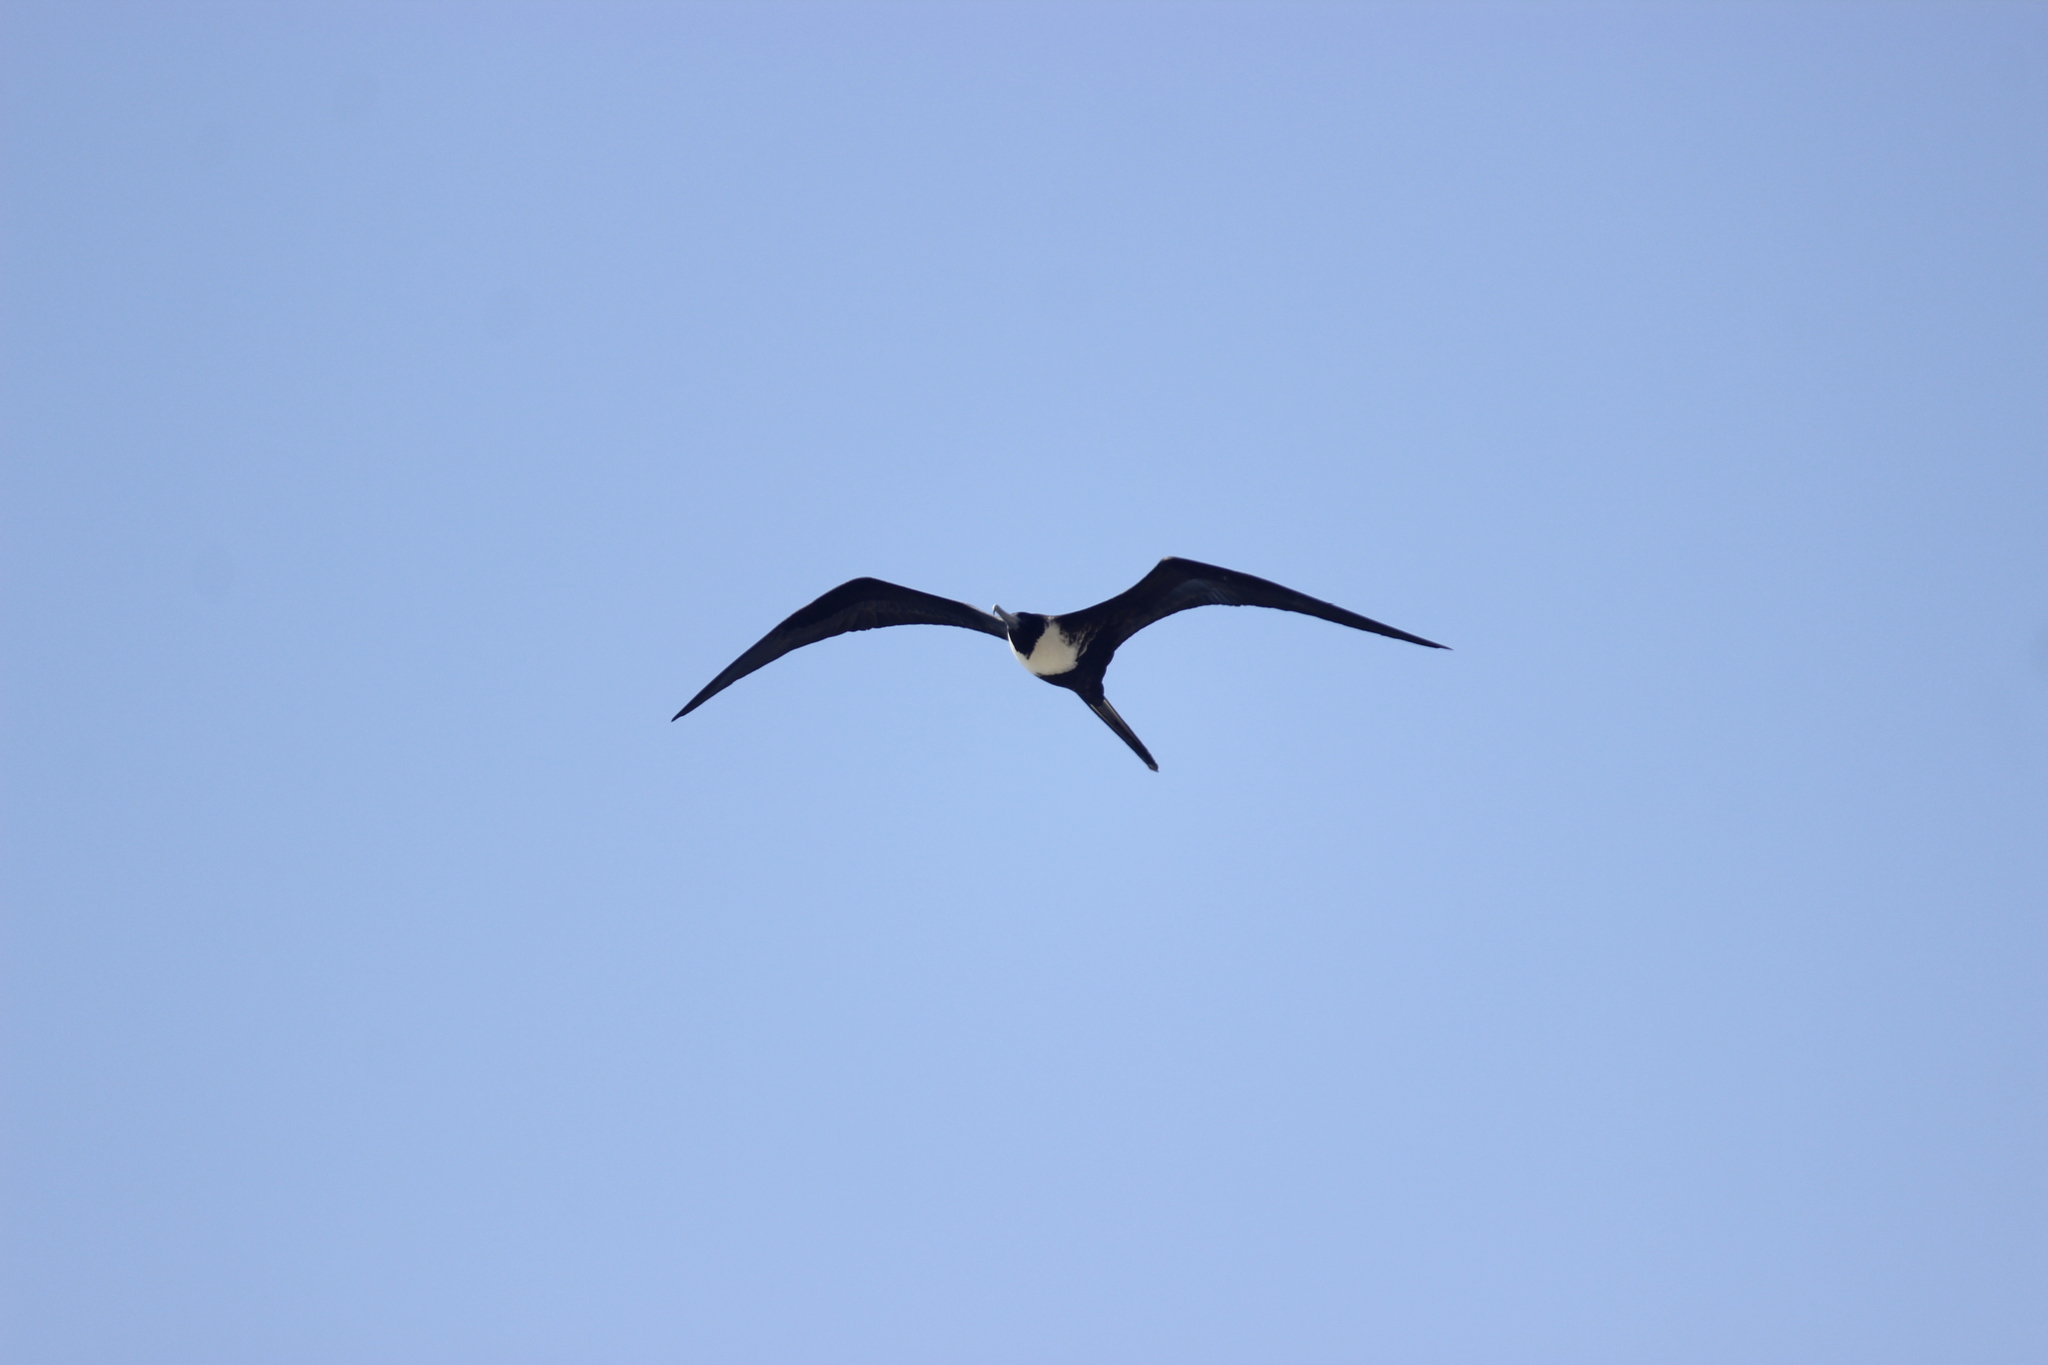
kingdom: Animalia
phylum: Chordata
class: Aves
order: Suliformes
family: Fregatidae
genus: Fregata
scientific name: Fregata magnificens
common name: Magnificent frigatebird
